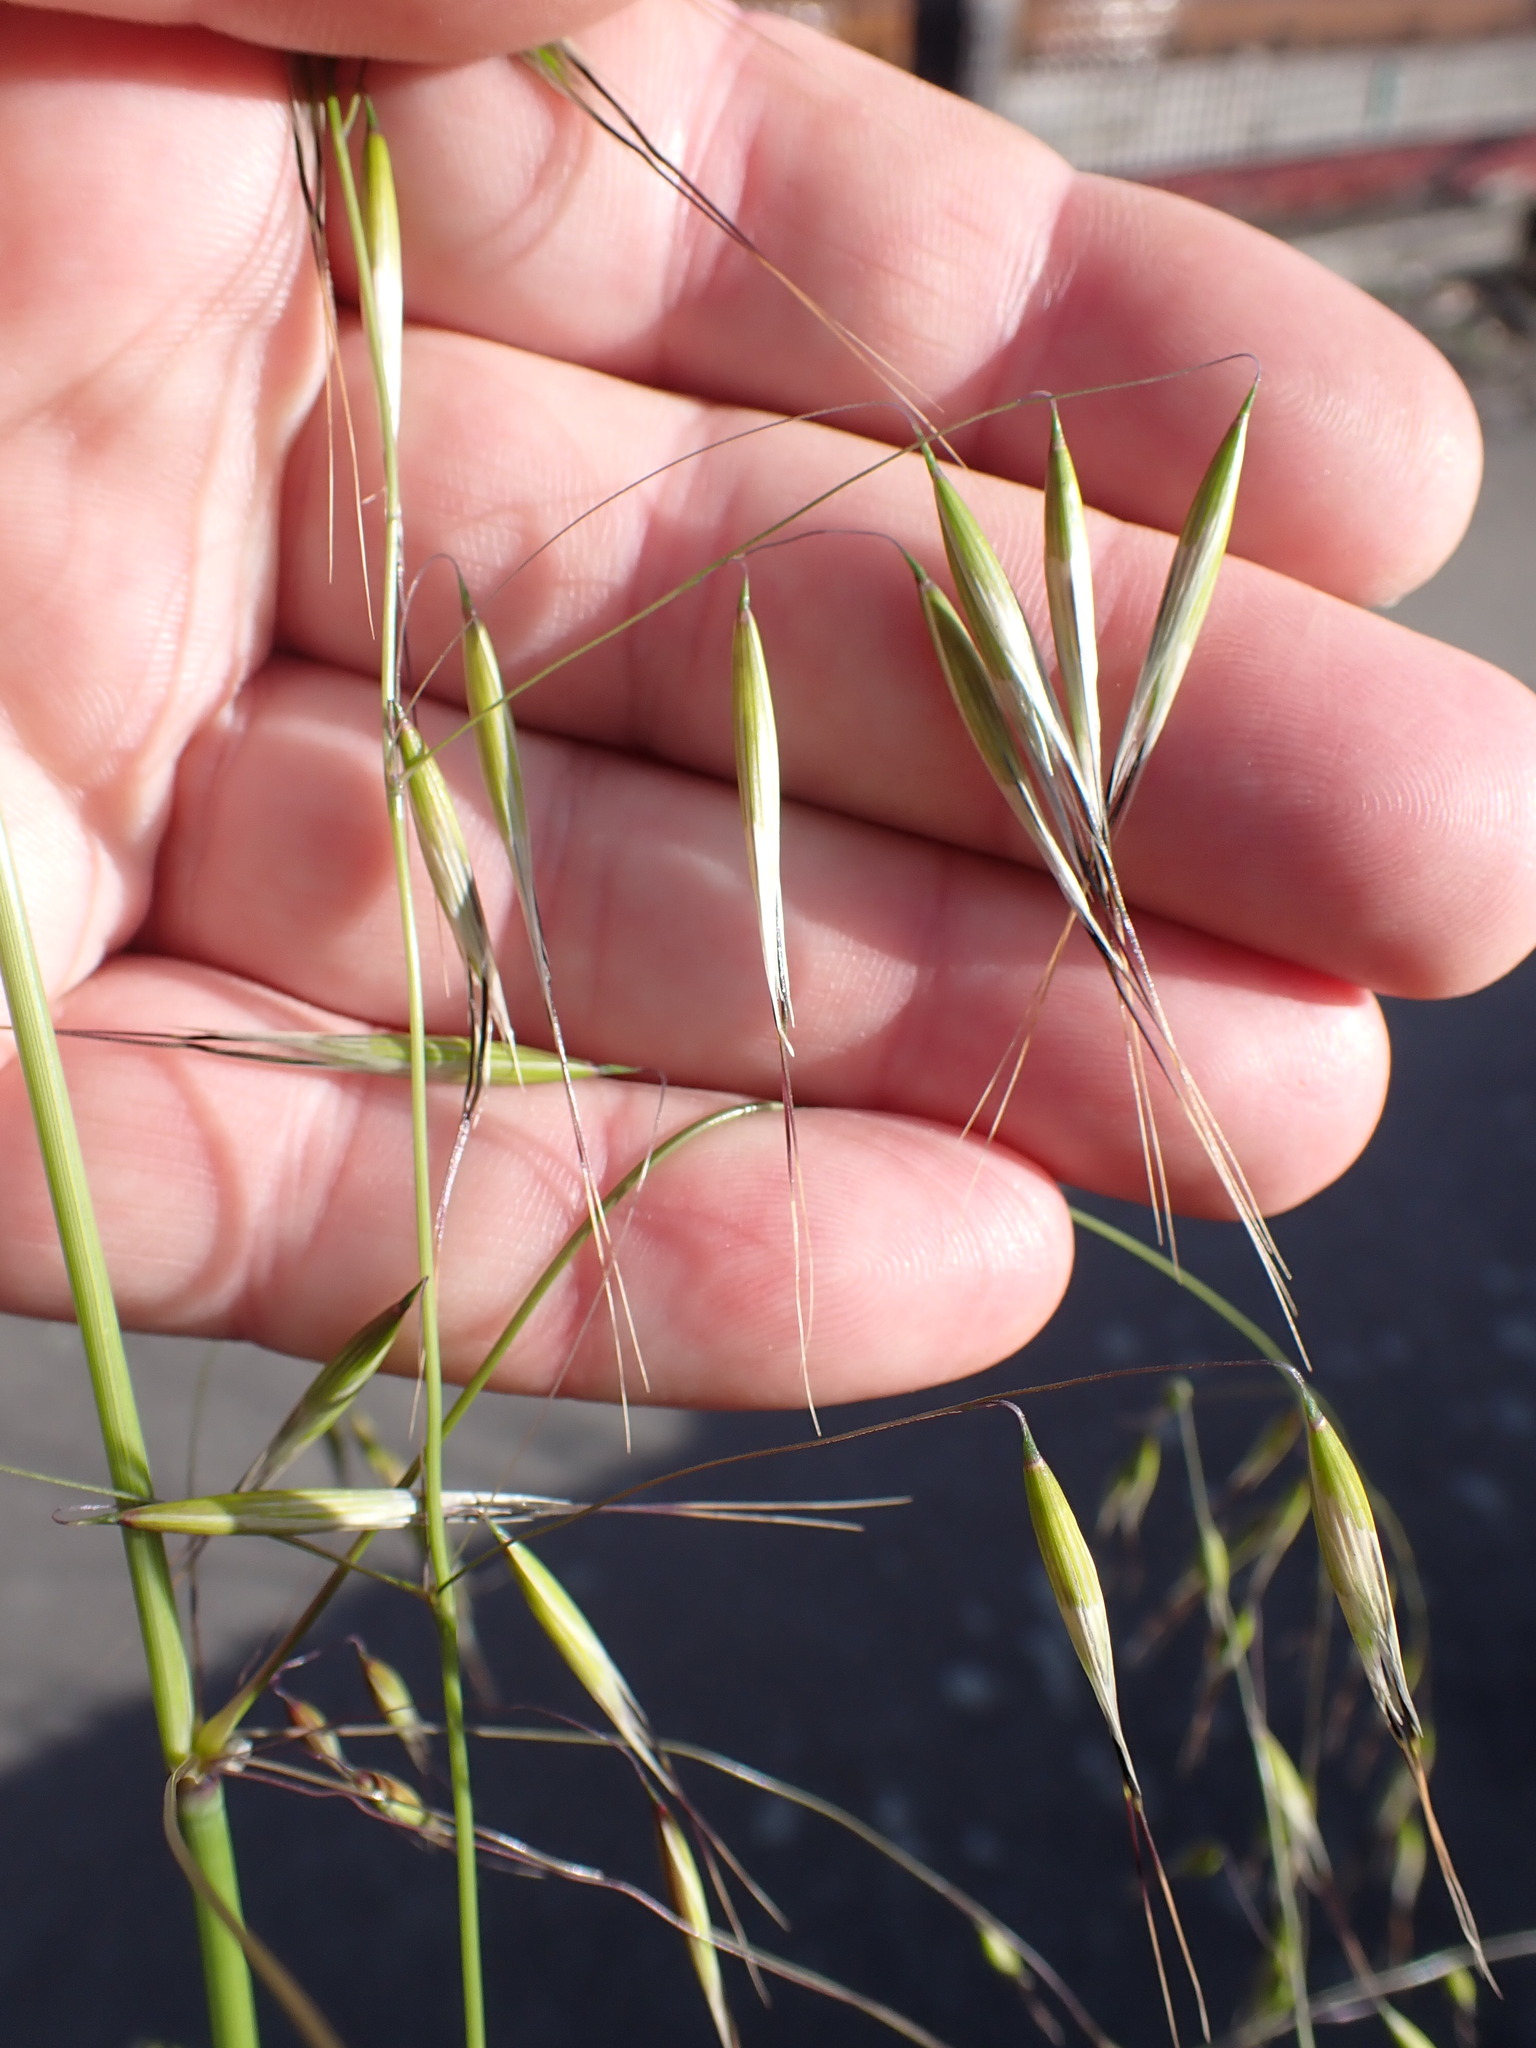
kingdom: Plantae
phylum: Tracheophyta
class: Liliopsida
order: Poales
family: Poaceae
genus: Avena
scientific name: Avena barbata
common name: Slender oat
